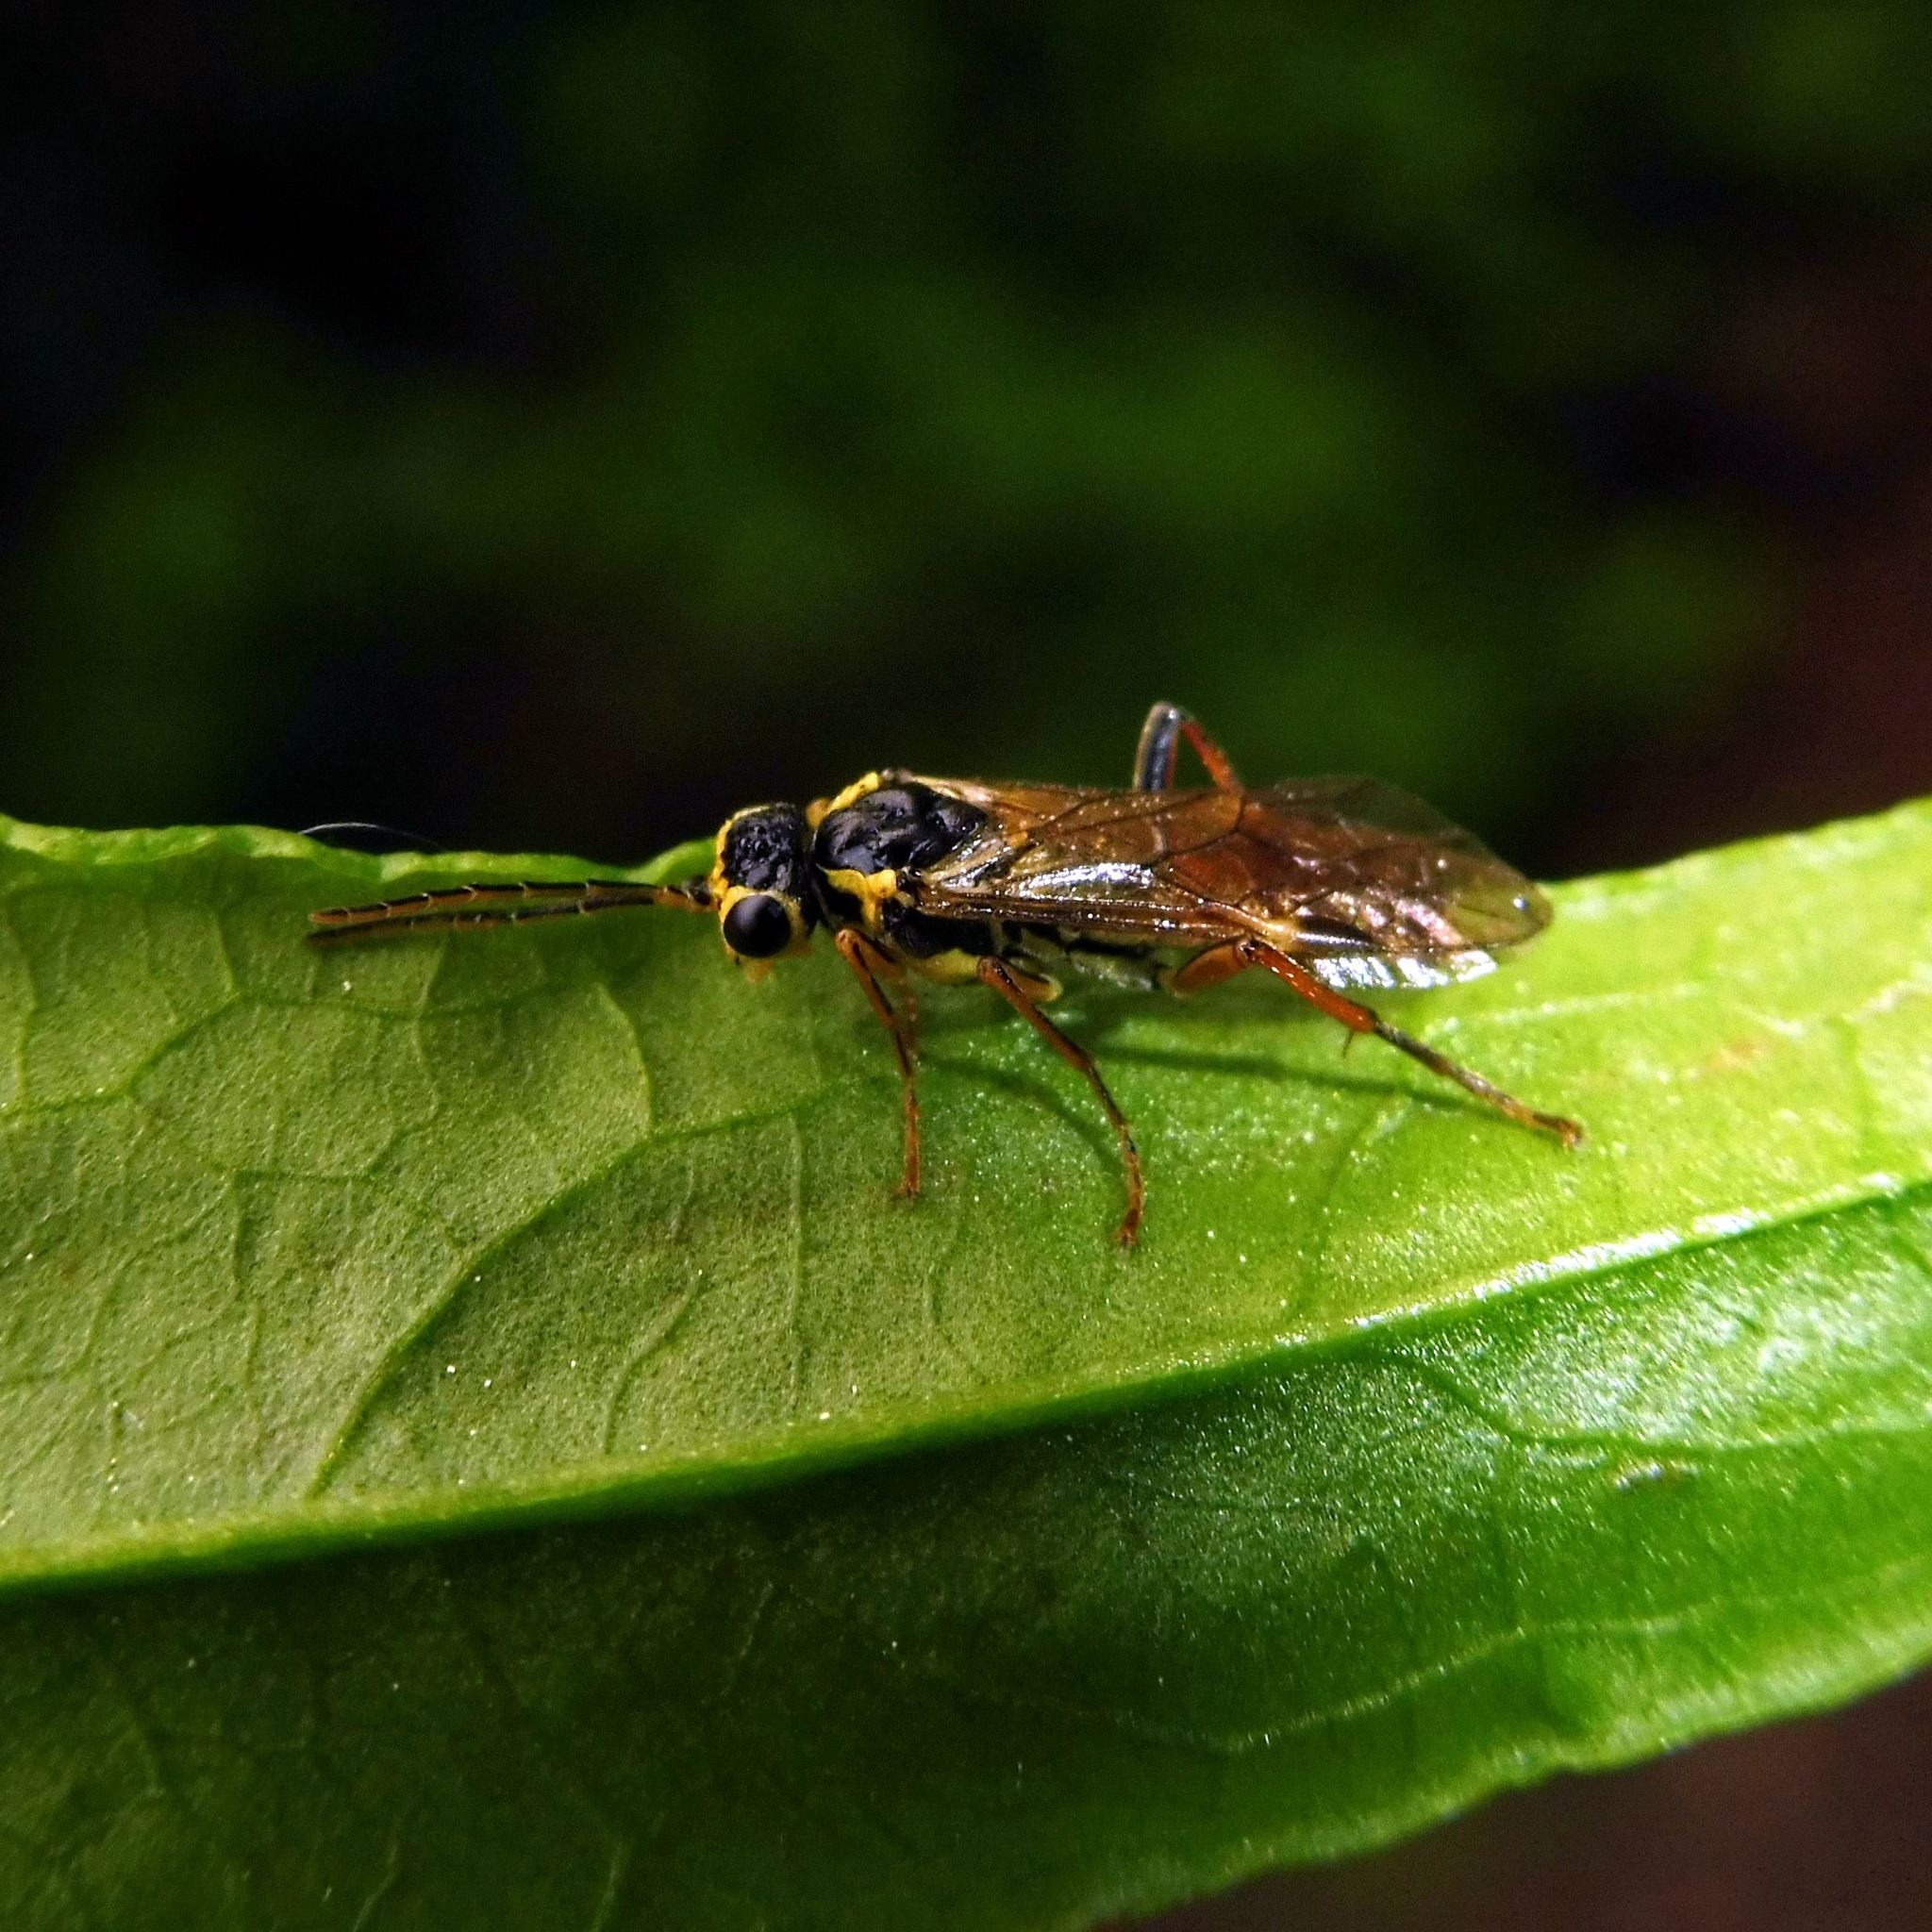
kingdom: Animalia
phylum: Arthropoda
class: Insecta
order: Hymenoptera
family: Tenthredinidae
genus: Aglaostigma
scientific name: Aglaostigma fulvipes
